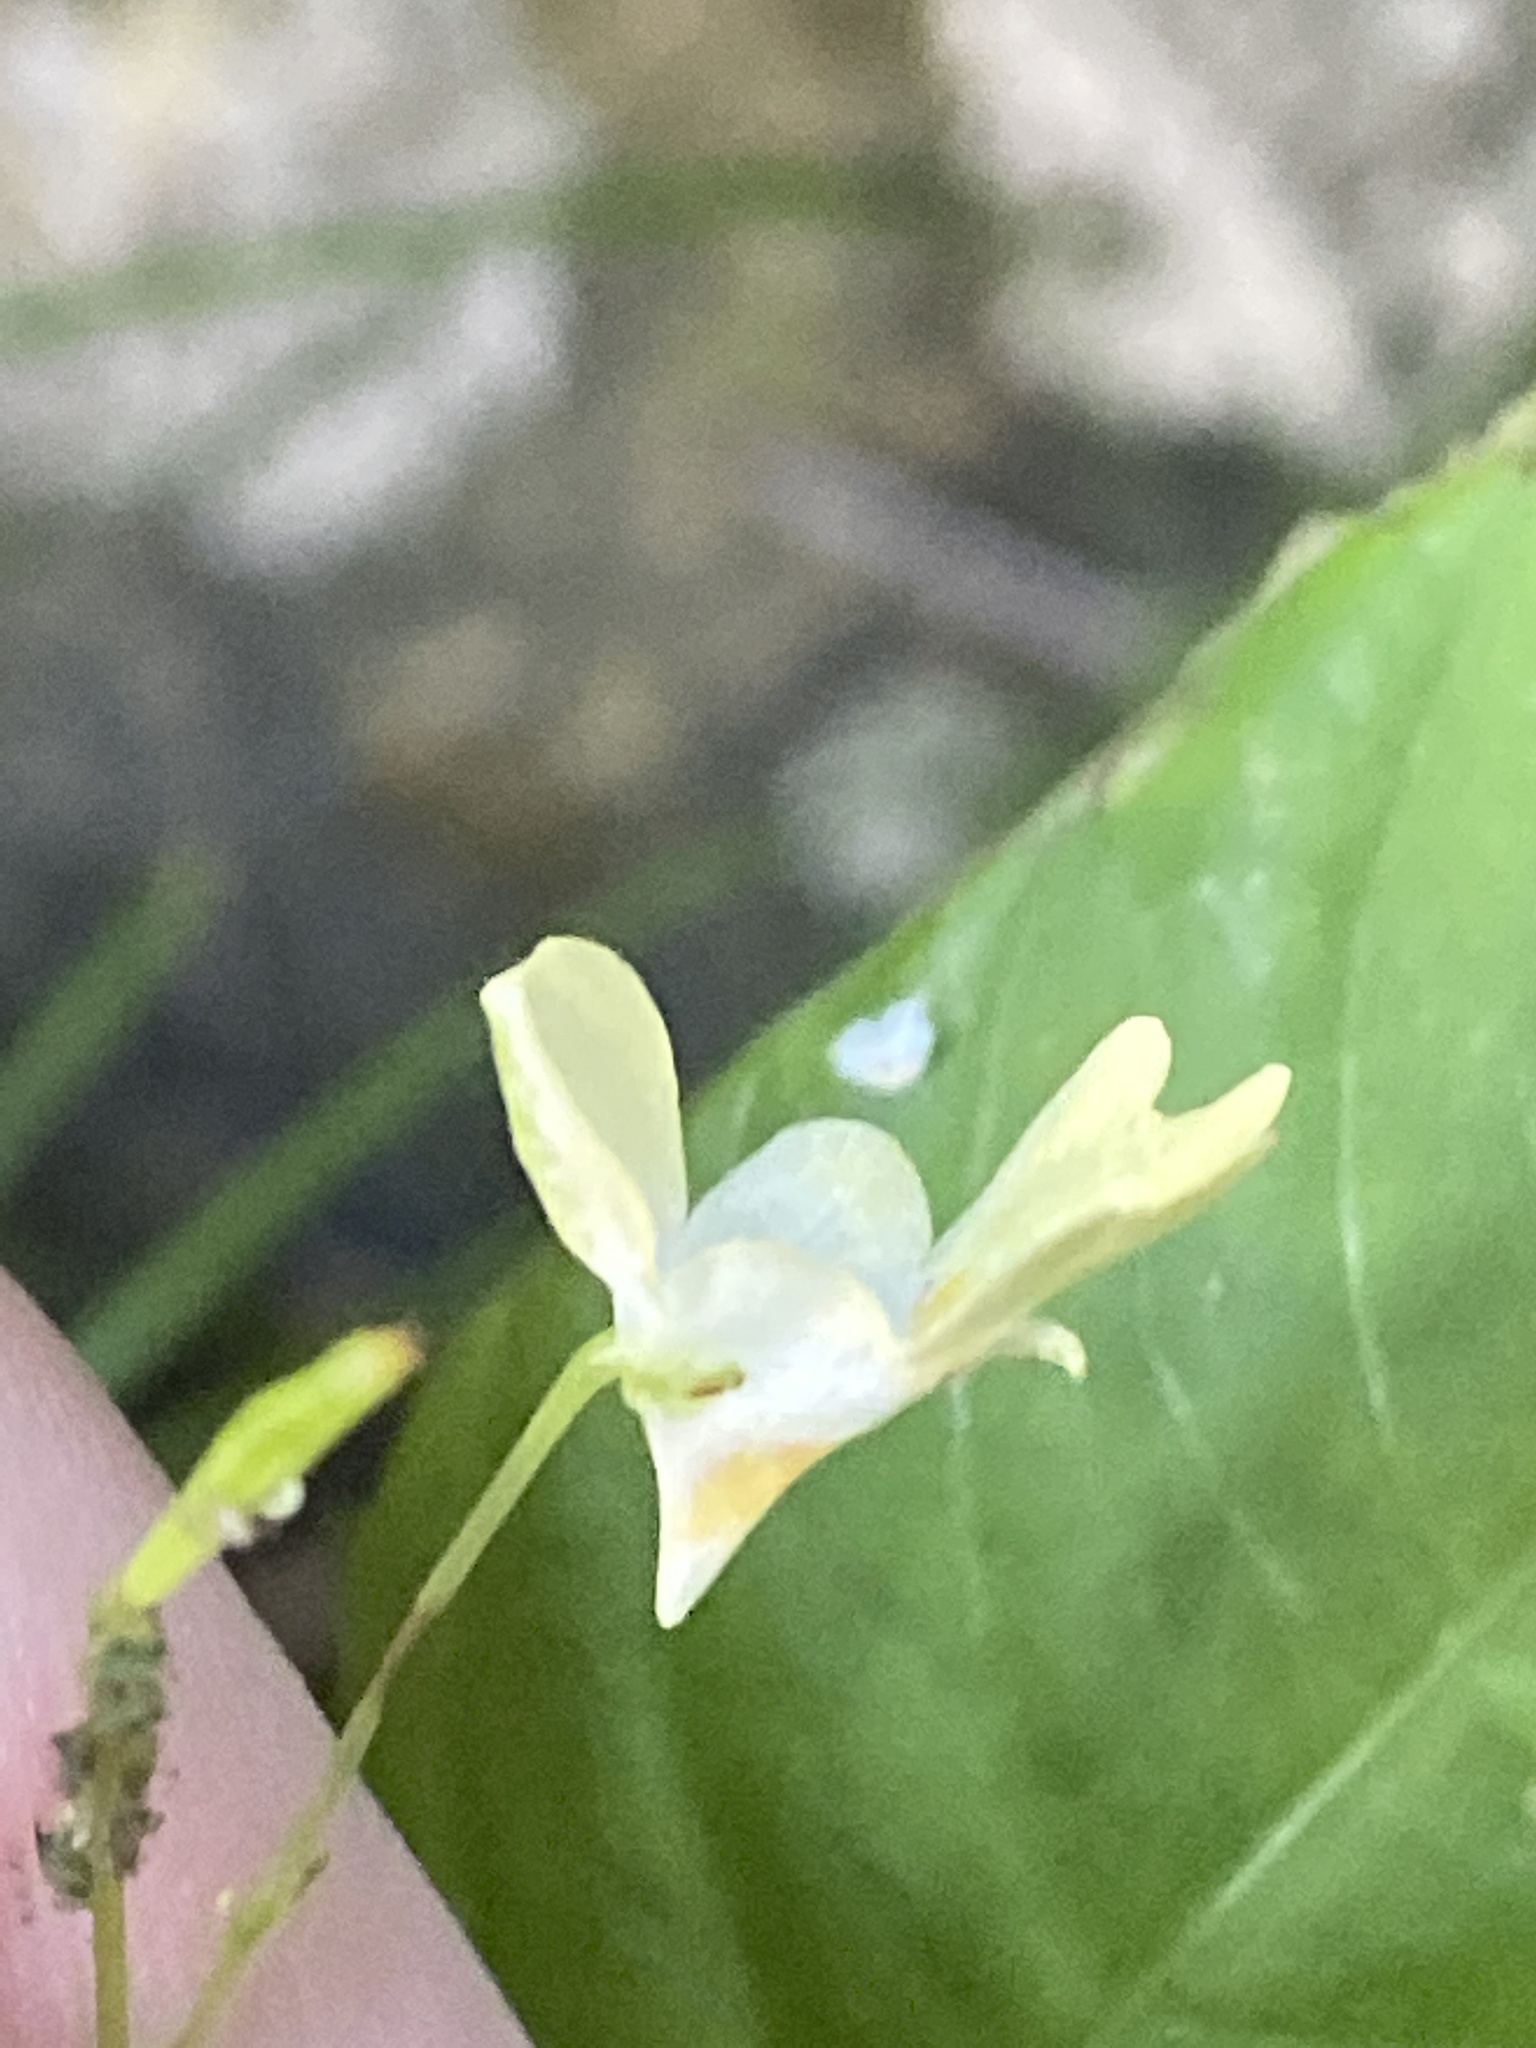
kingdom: Plantae
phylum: Tracheophyta
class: Magnoliopsida
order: Ericales
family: Balsaminaceae
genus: Impatiens
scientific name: Impatiens parviflora
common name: Small balsam
